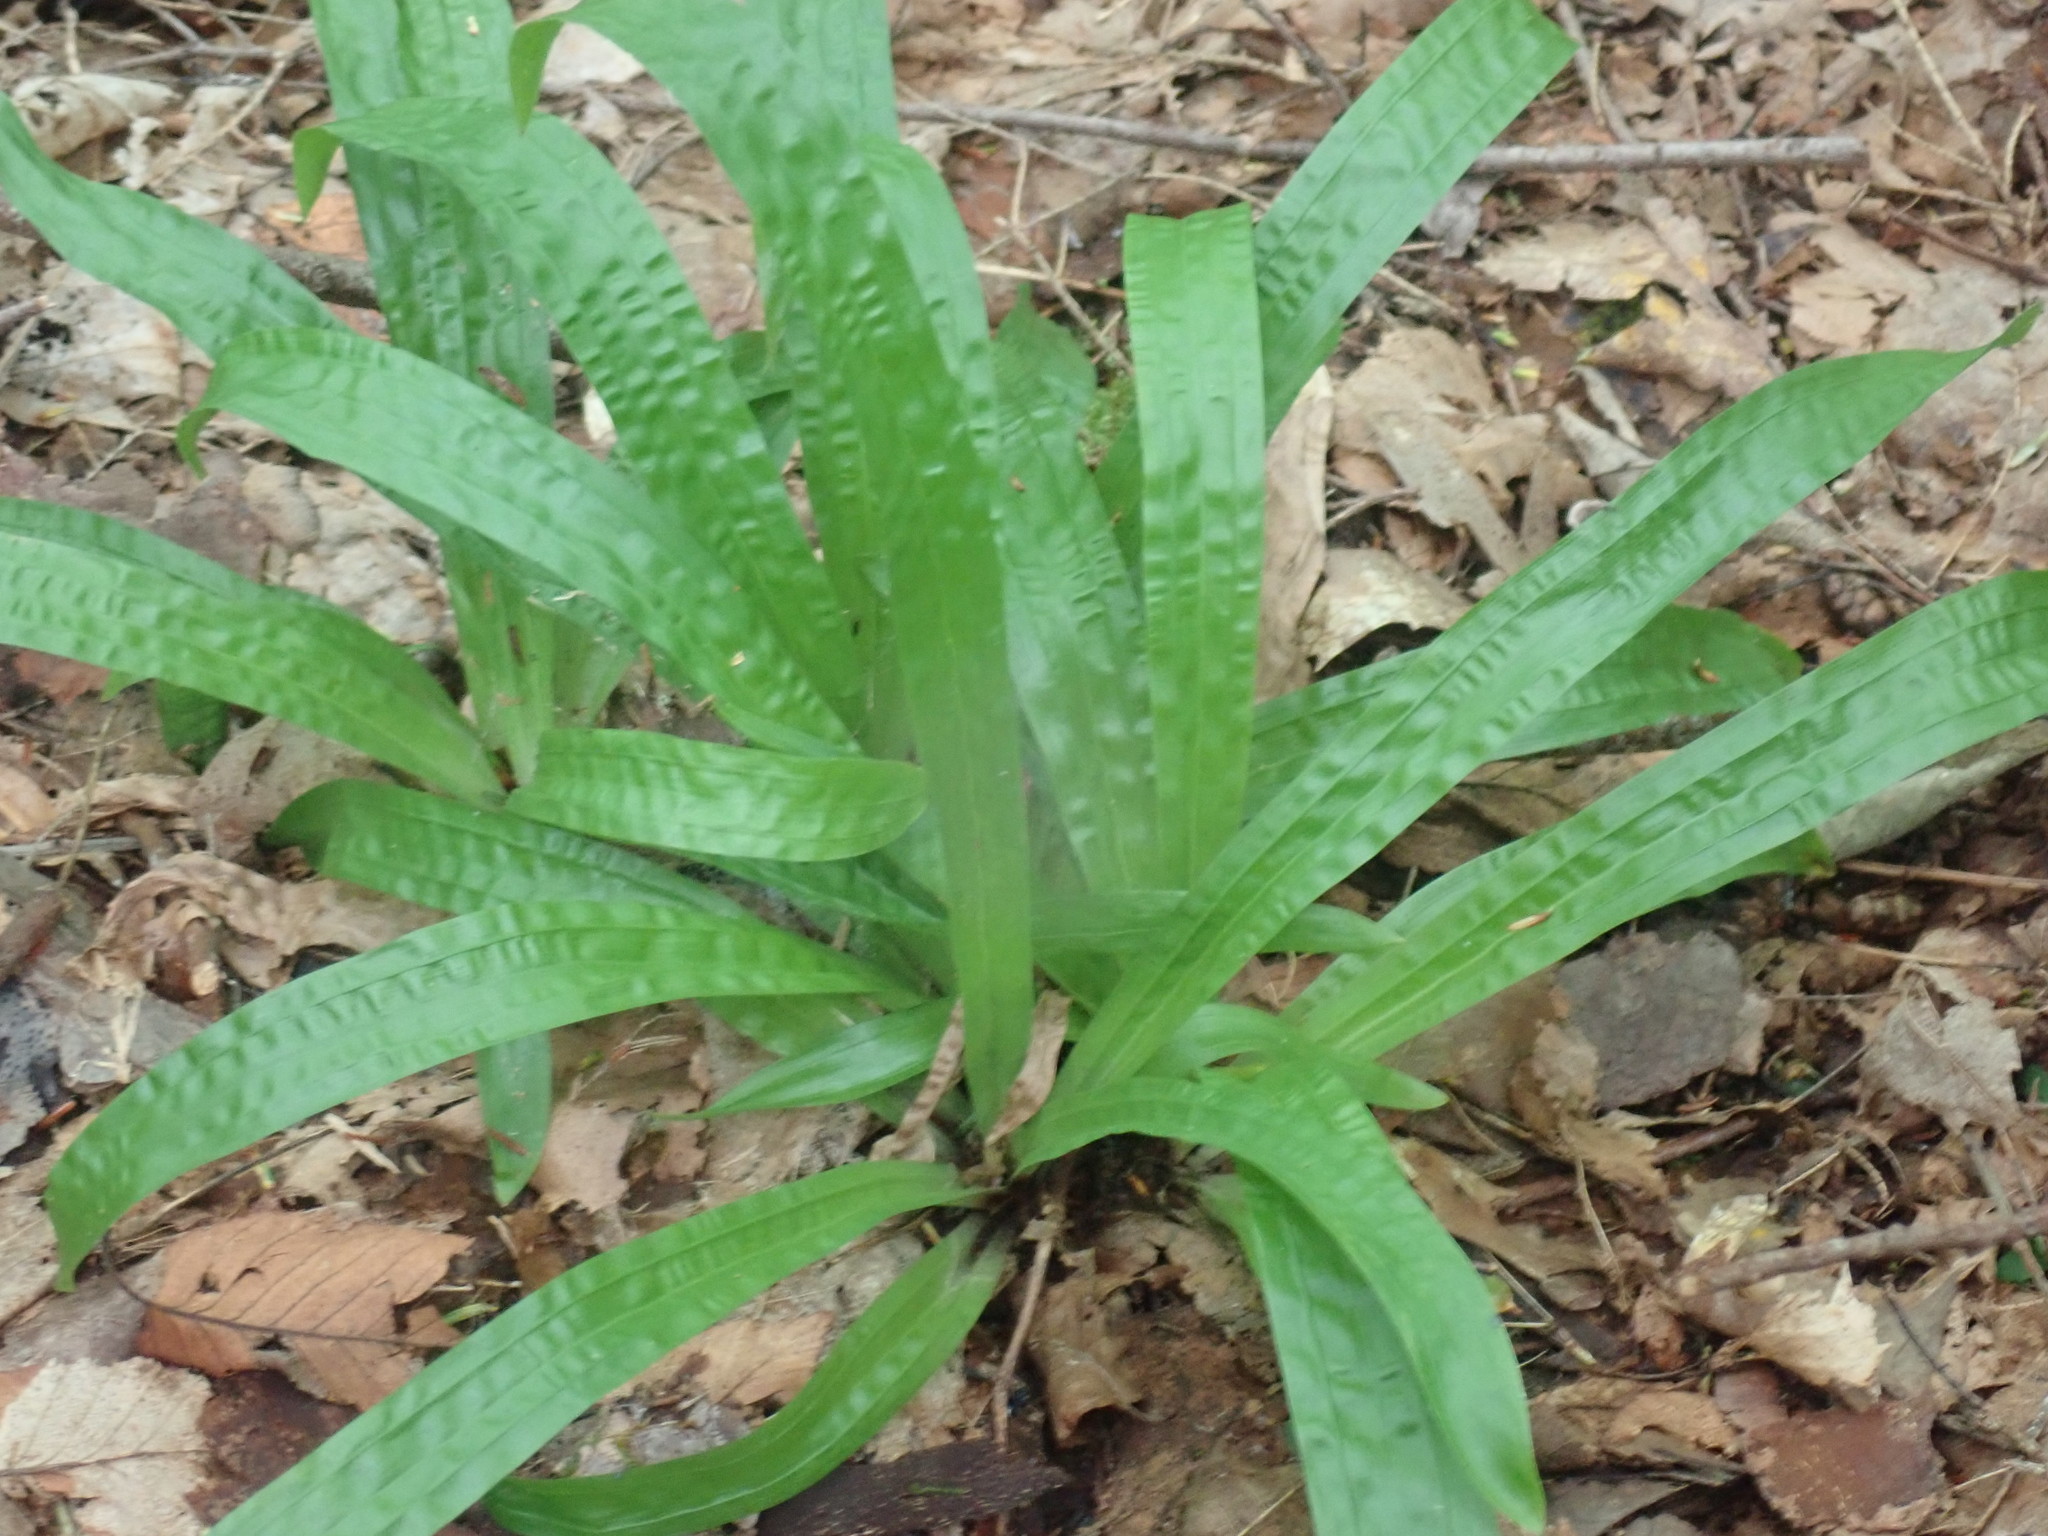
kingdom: Plantae
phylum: Tracheophyta
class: Liliopsida
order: Poales
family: Cyperaceae
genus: Carex
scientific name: Carex plantaginea
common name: Plantain-leaved sedge
